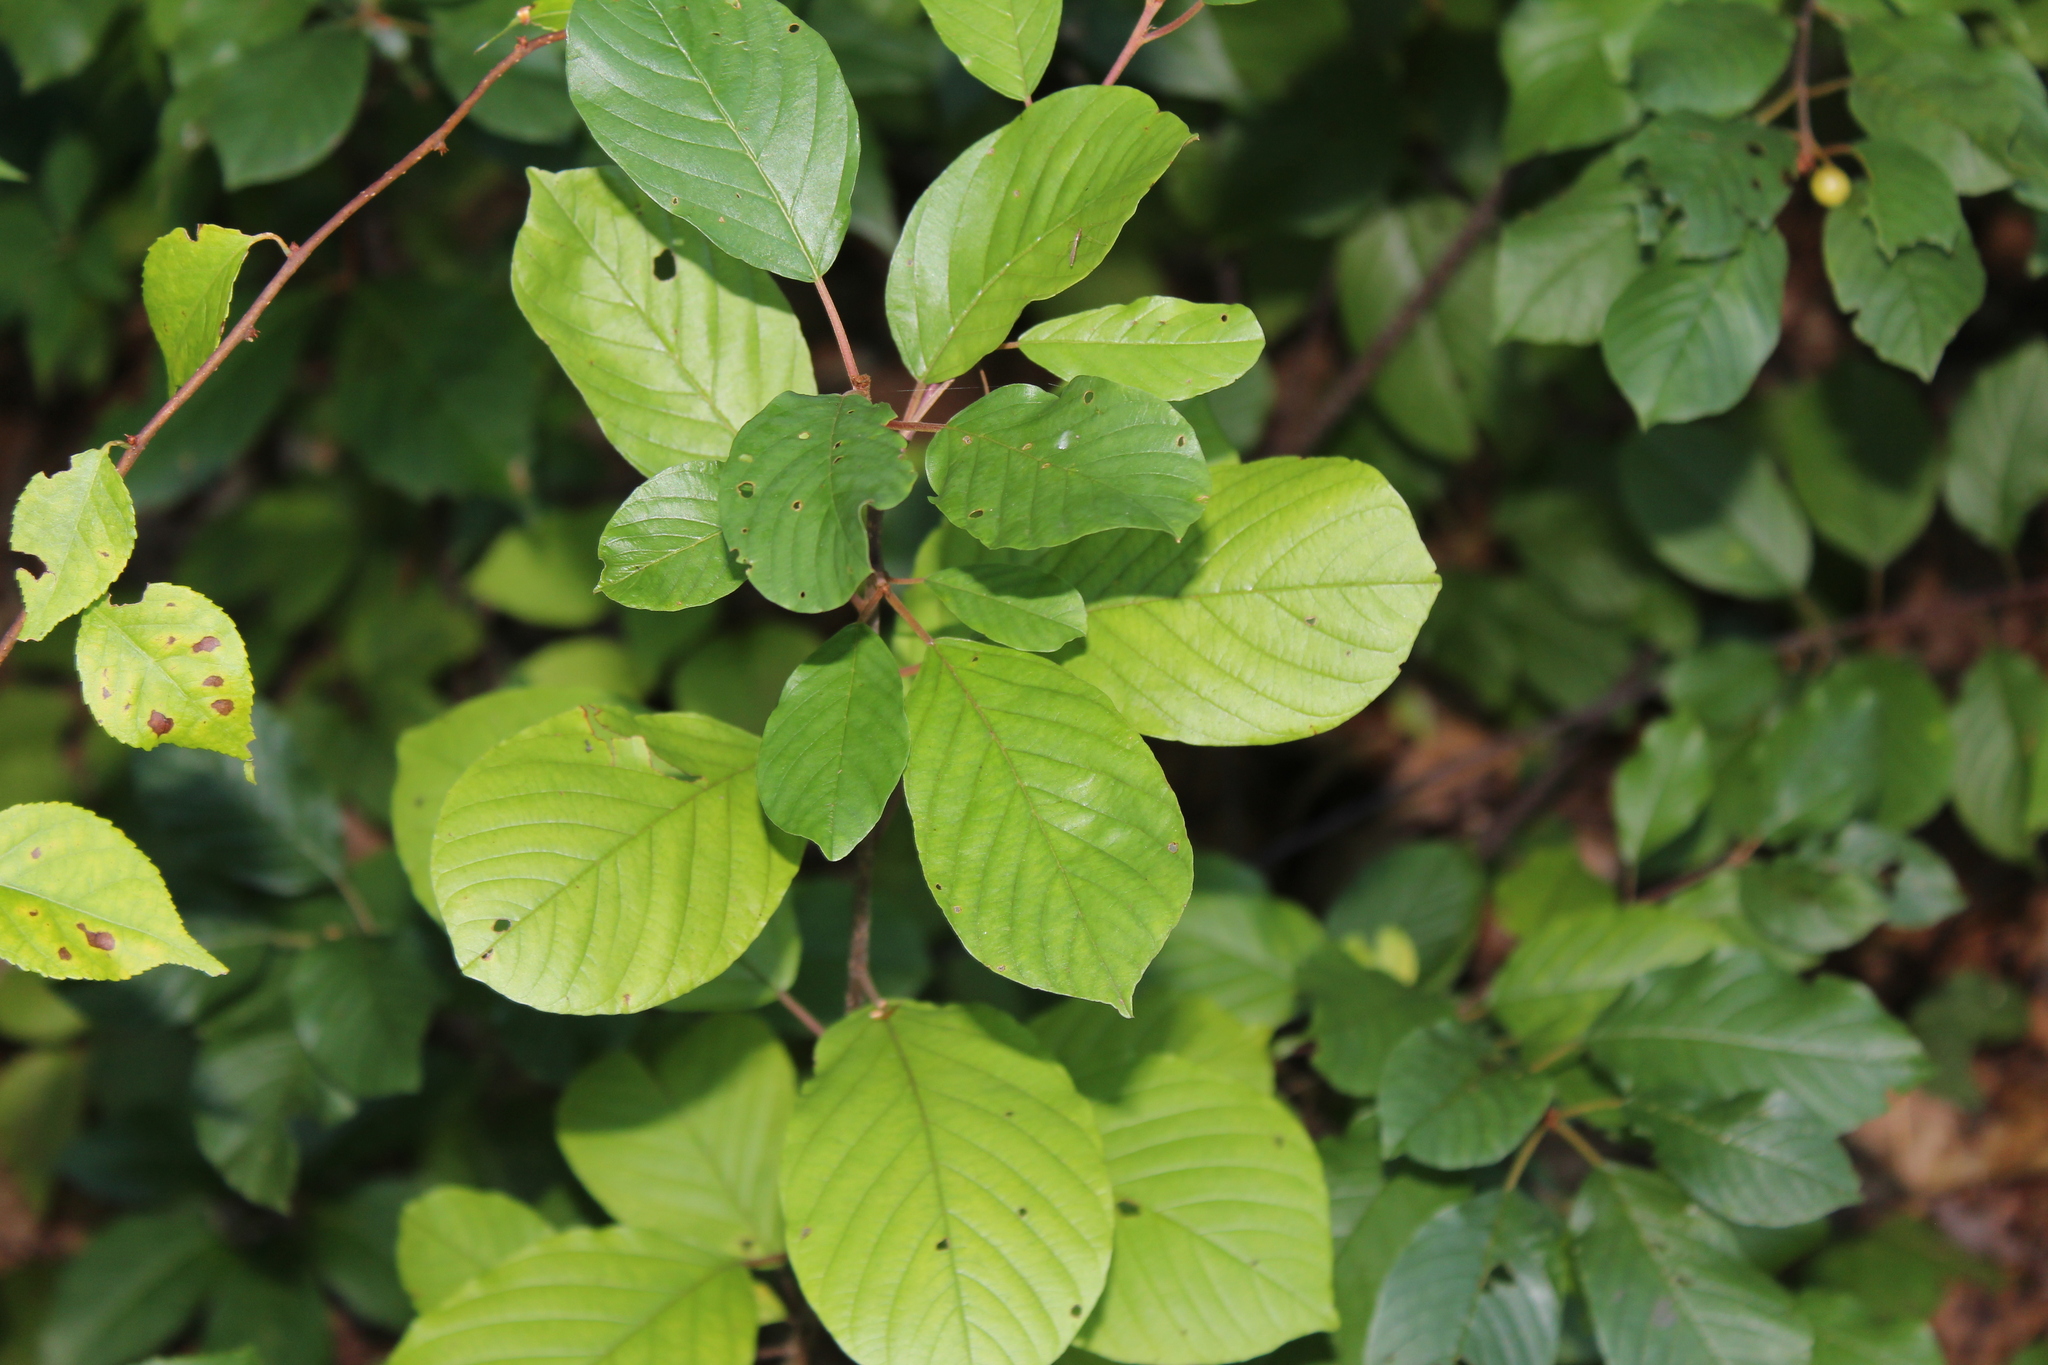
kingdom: Plantae
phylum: Tracheophyta
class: Magnoliopsida
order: Rosales
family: Rhamnaceae
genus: Frangula
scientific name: Frangula alnus
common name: Alder buckthorn
